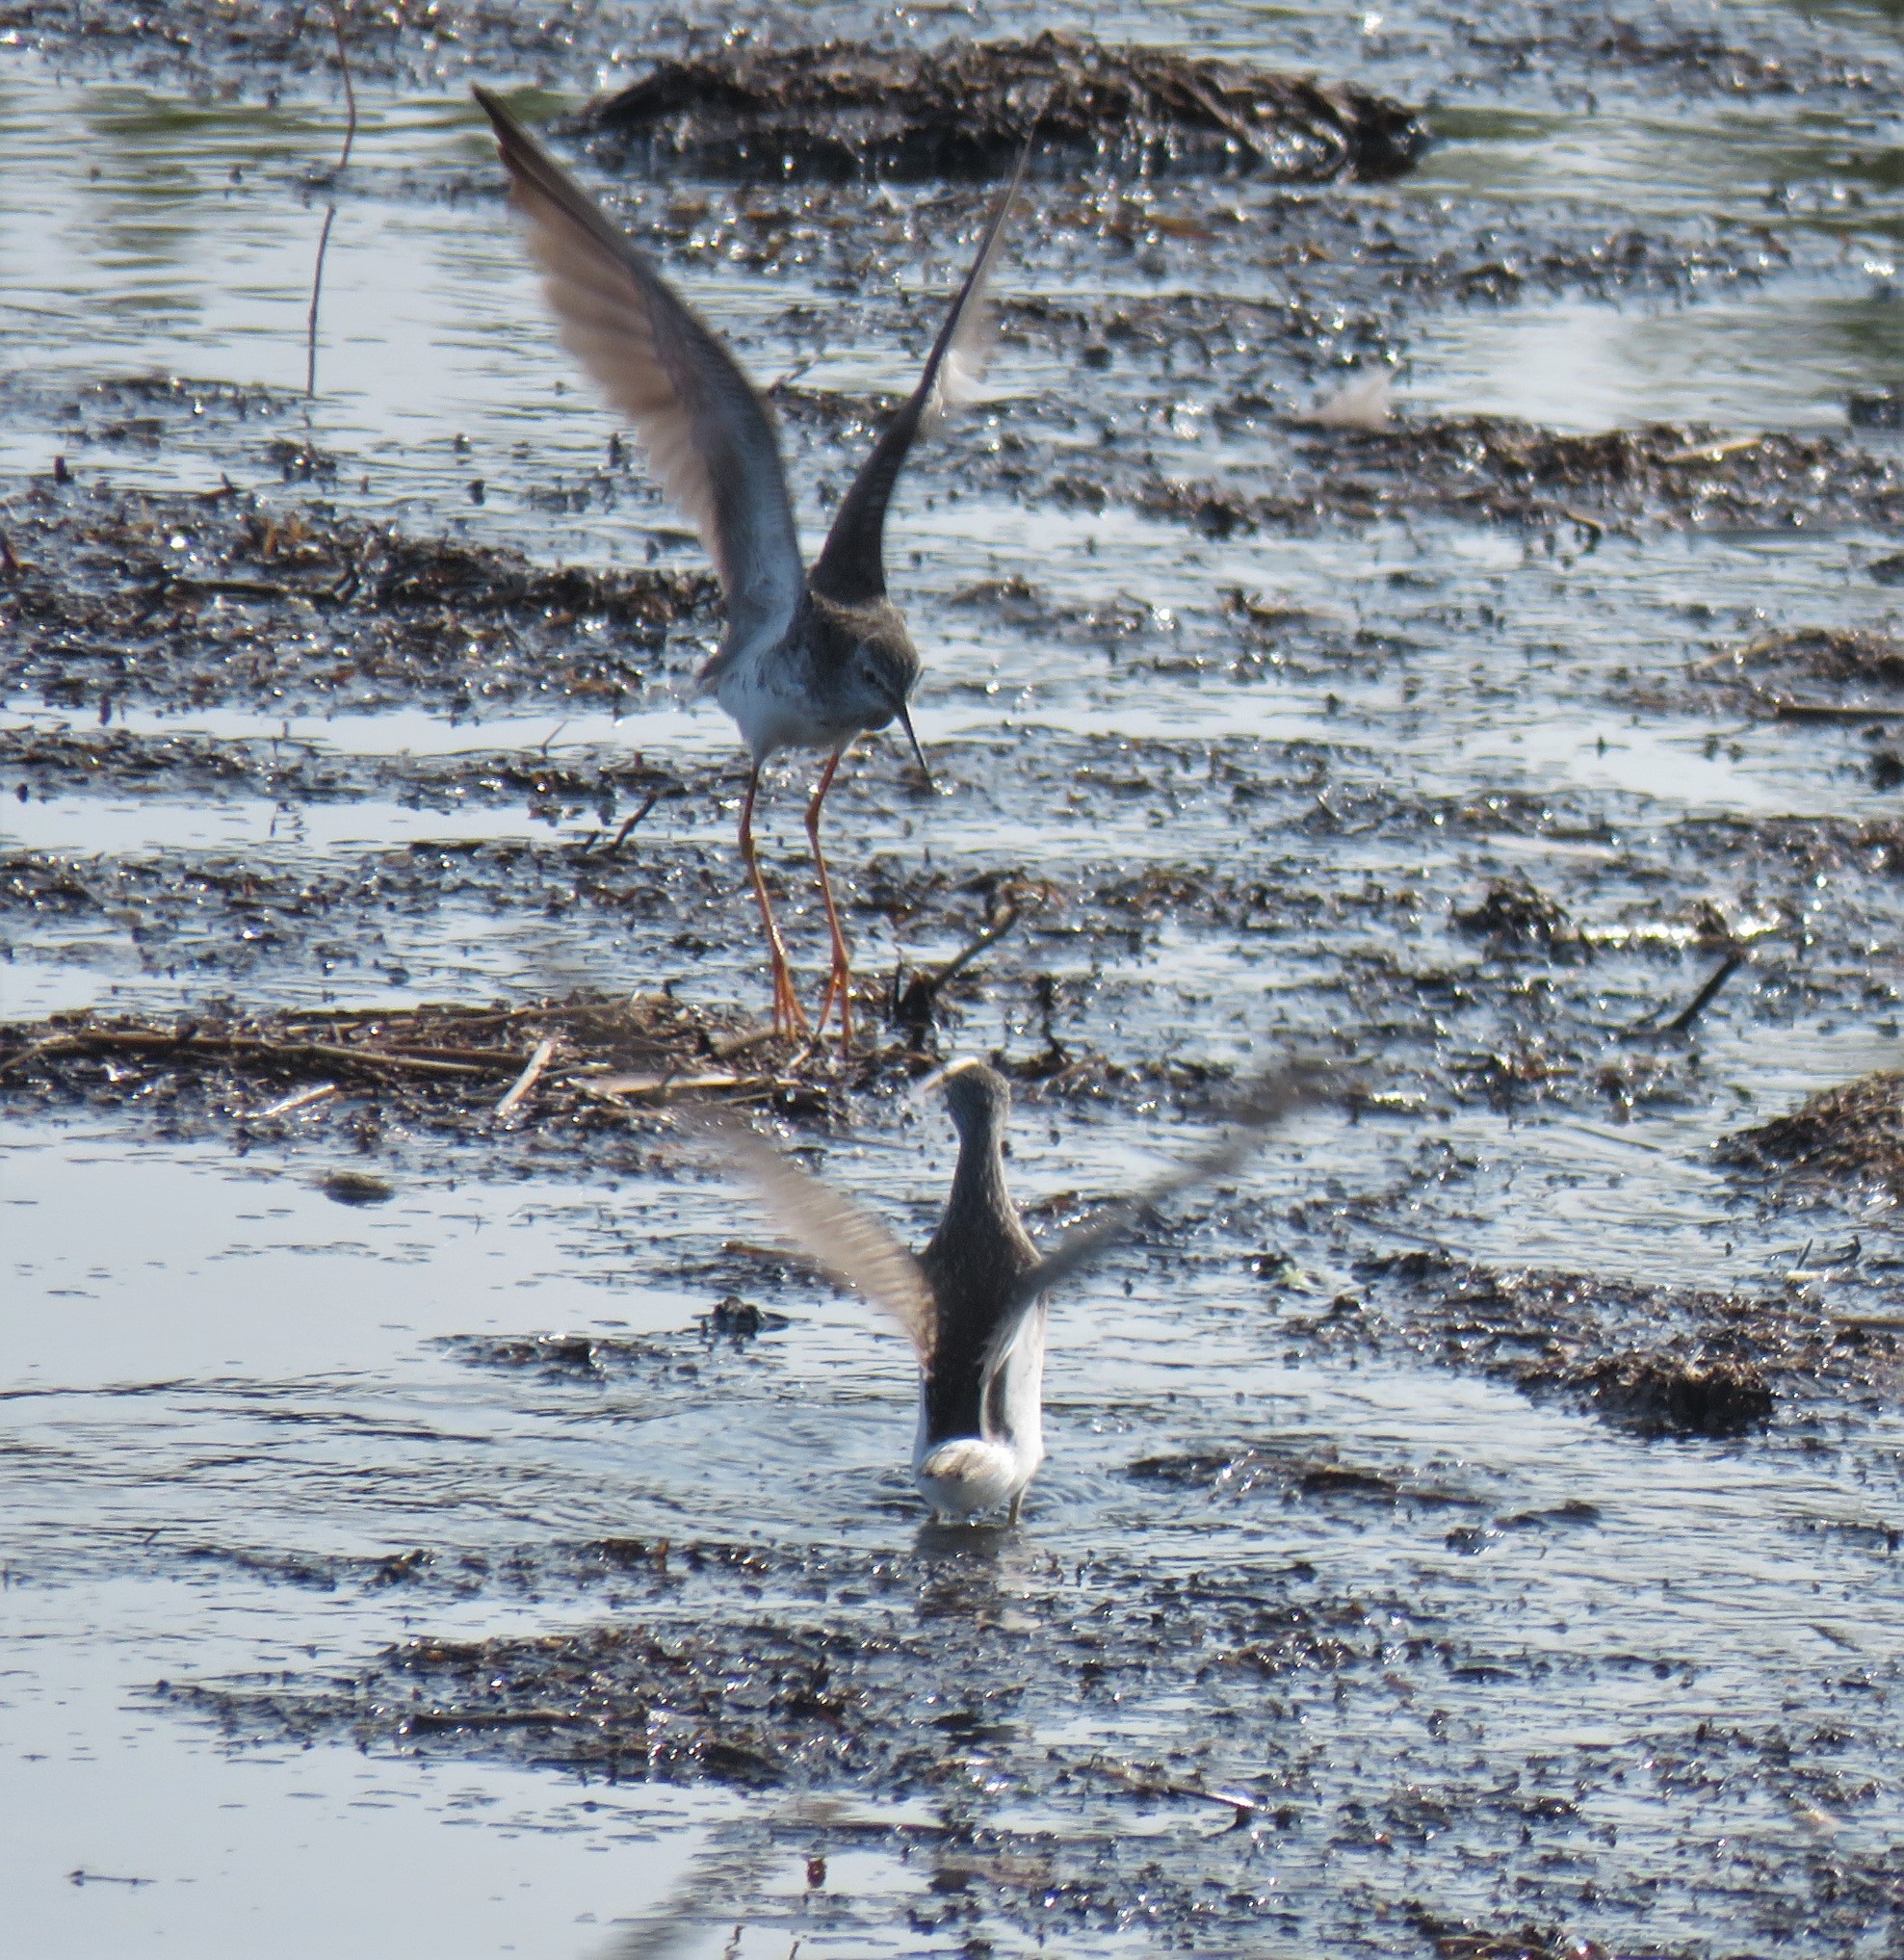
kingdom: Animalia
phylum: Chordata
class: Aves
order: Charadriiformes
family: Scolopacidae
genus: Tringa
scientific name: Tringa flavipes
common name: Lesser yellowlegs
